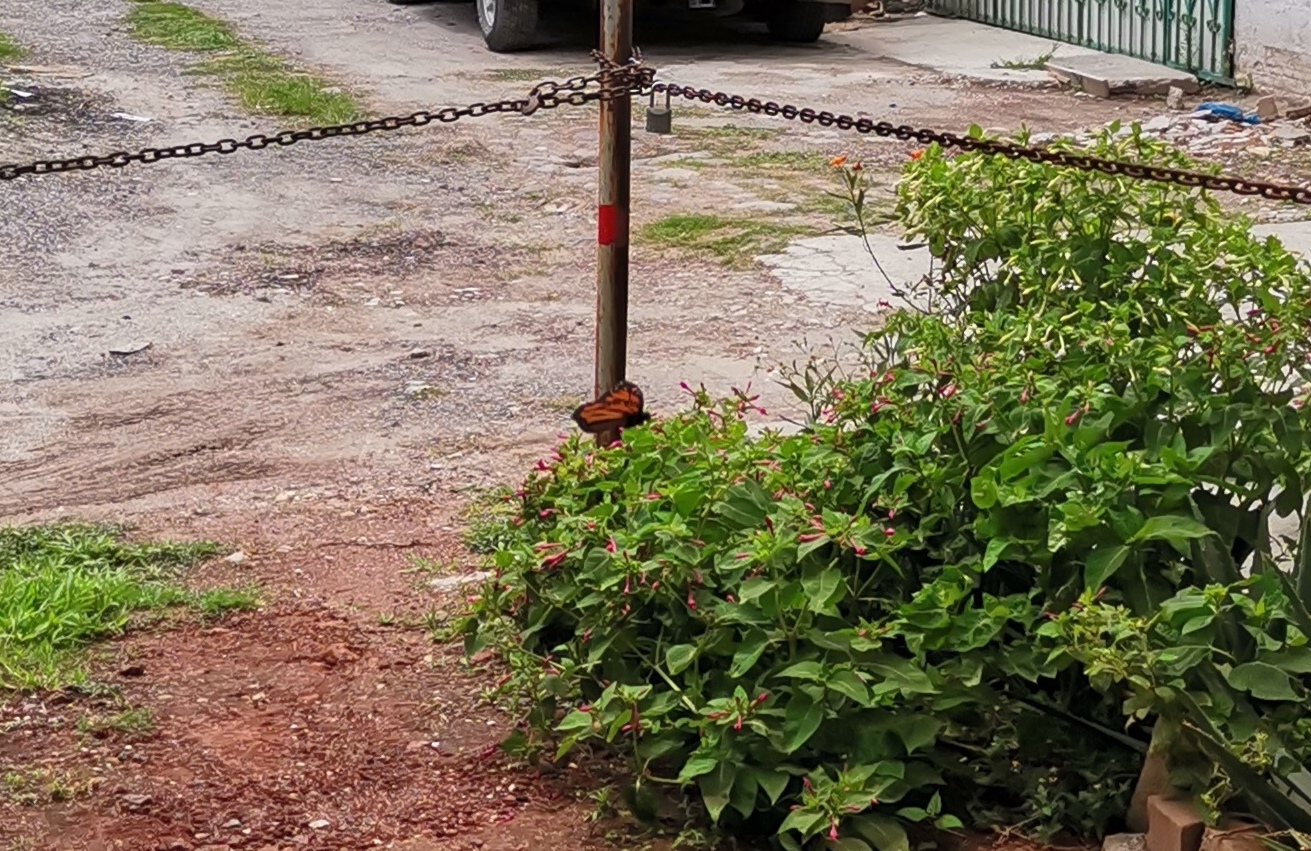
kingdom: Animalia
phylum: Arthropoda
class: Insecta
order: Lepidoptera
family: Nymphalidae
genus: Danaus
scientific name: Danaus plexippus
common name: Monarch
